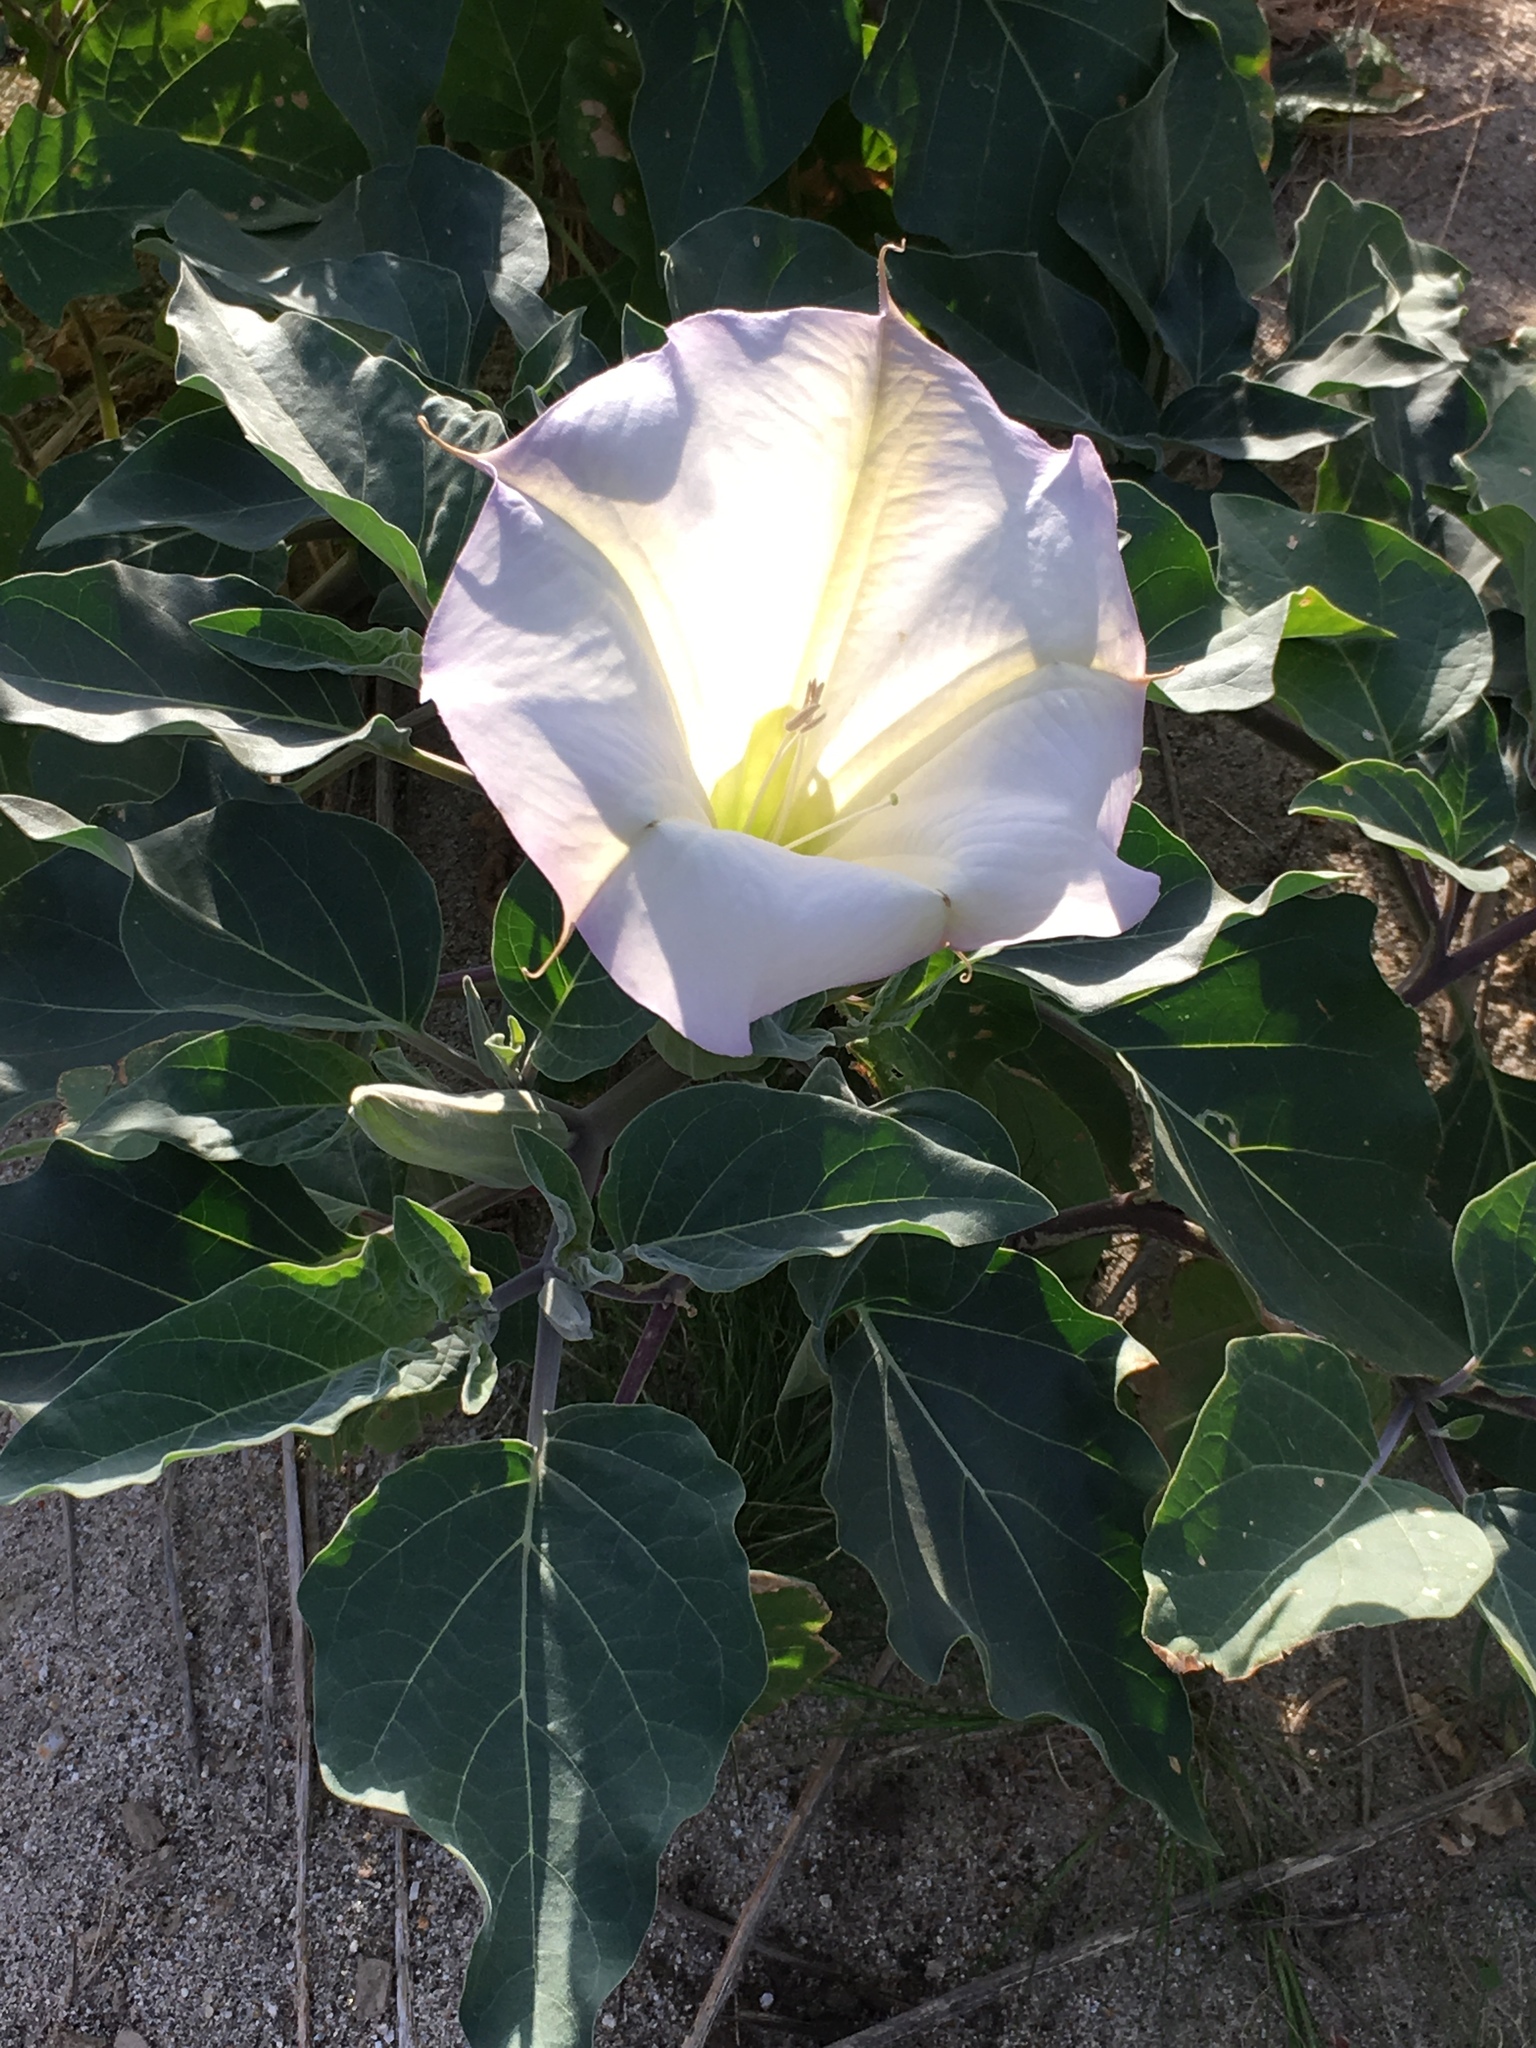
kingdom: Plantae
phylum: Tracheophyta
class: Magnoliopsida
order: Solanales
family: Solanaceae
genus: Datura
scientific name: Datura wrightii
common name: Sacred thorn-apple
